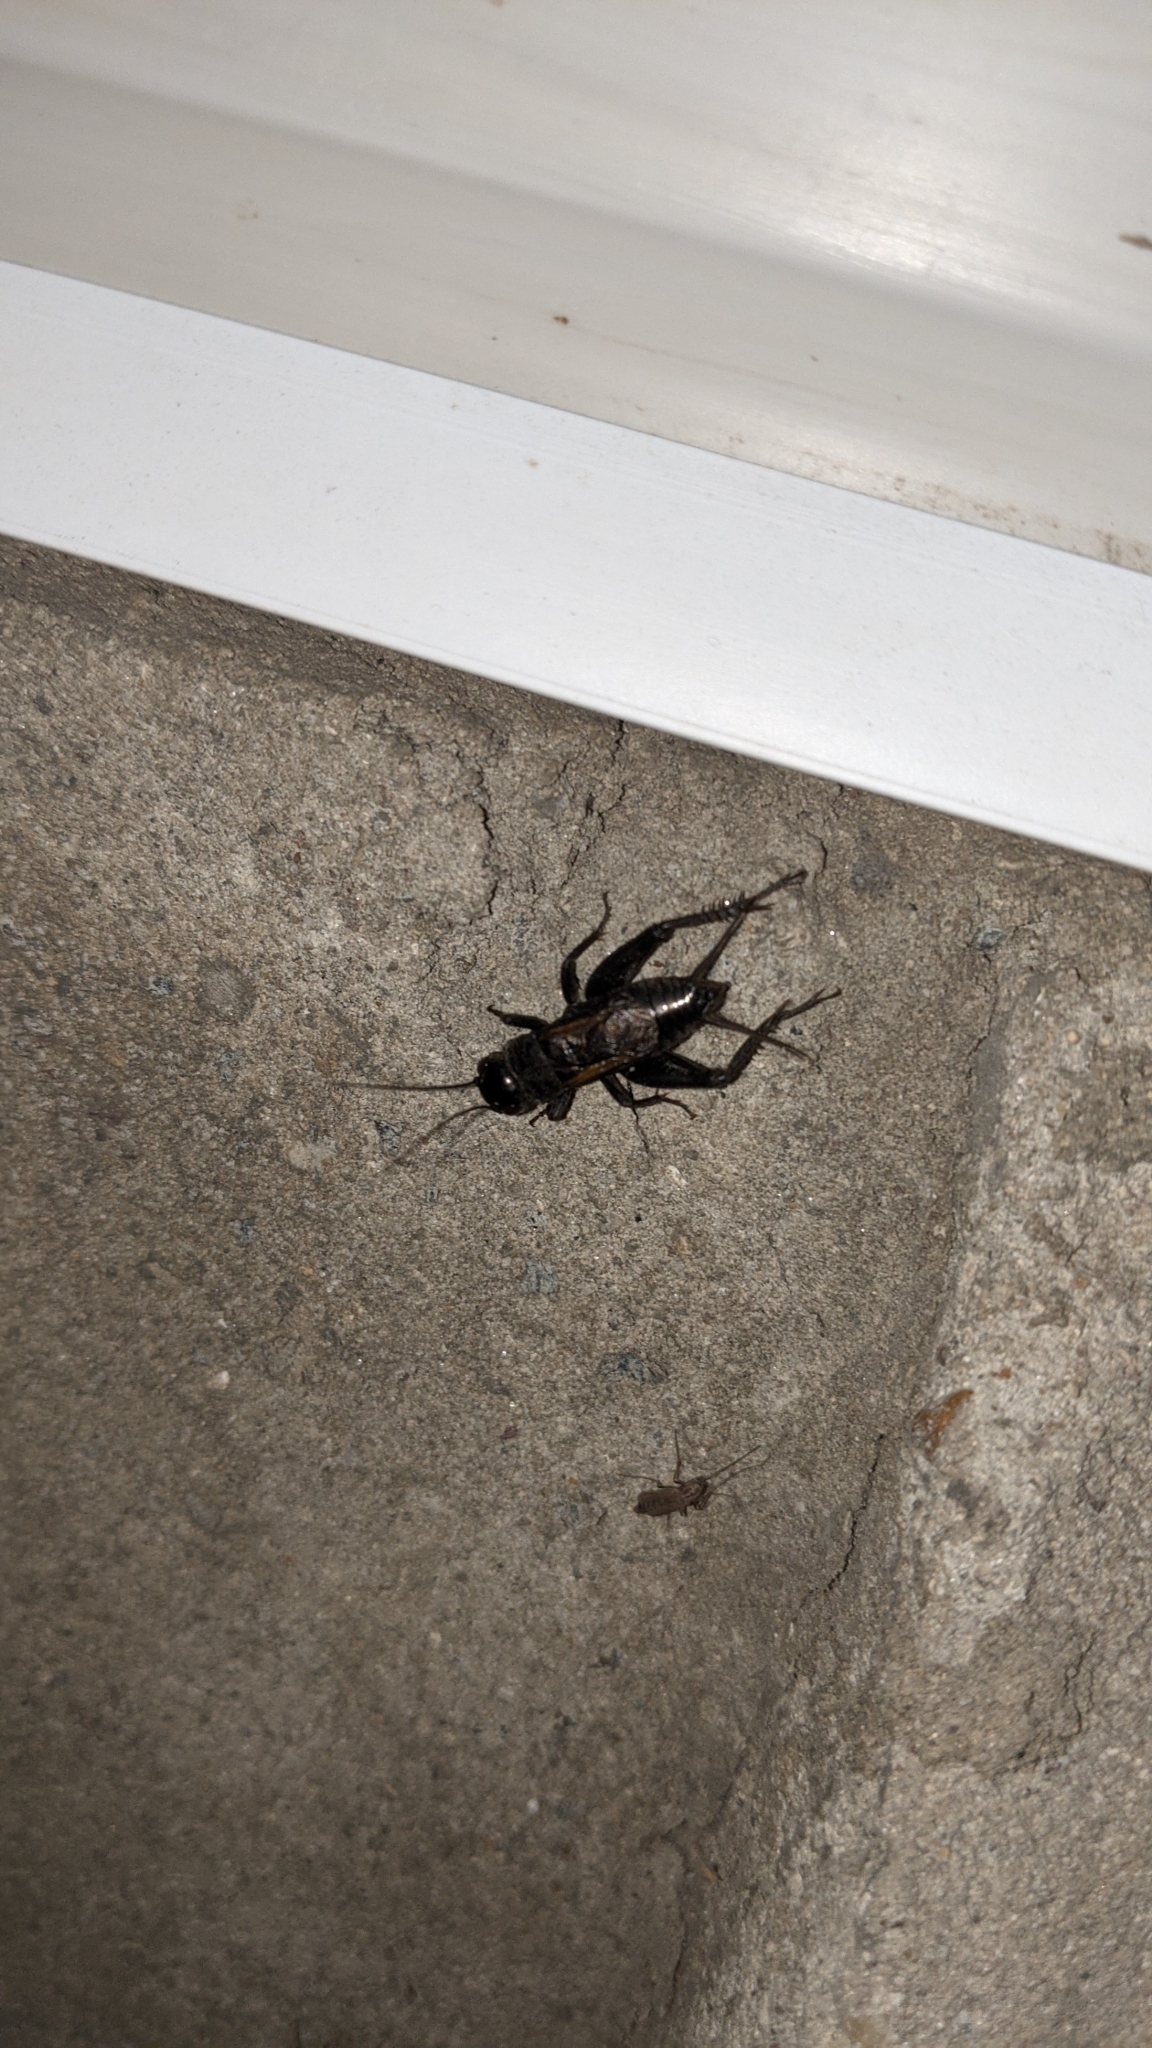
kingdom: Animalia
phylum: Arthropoda
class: Insecta
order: Orthoptera
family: Gryllidae
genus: Melanogryllus
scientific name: Melanogryllus desertus
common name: Desert cricket
